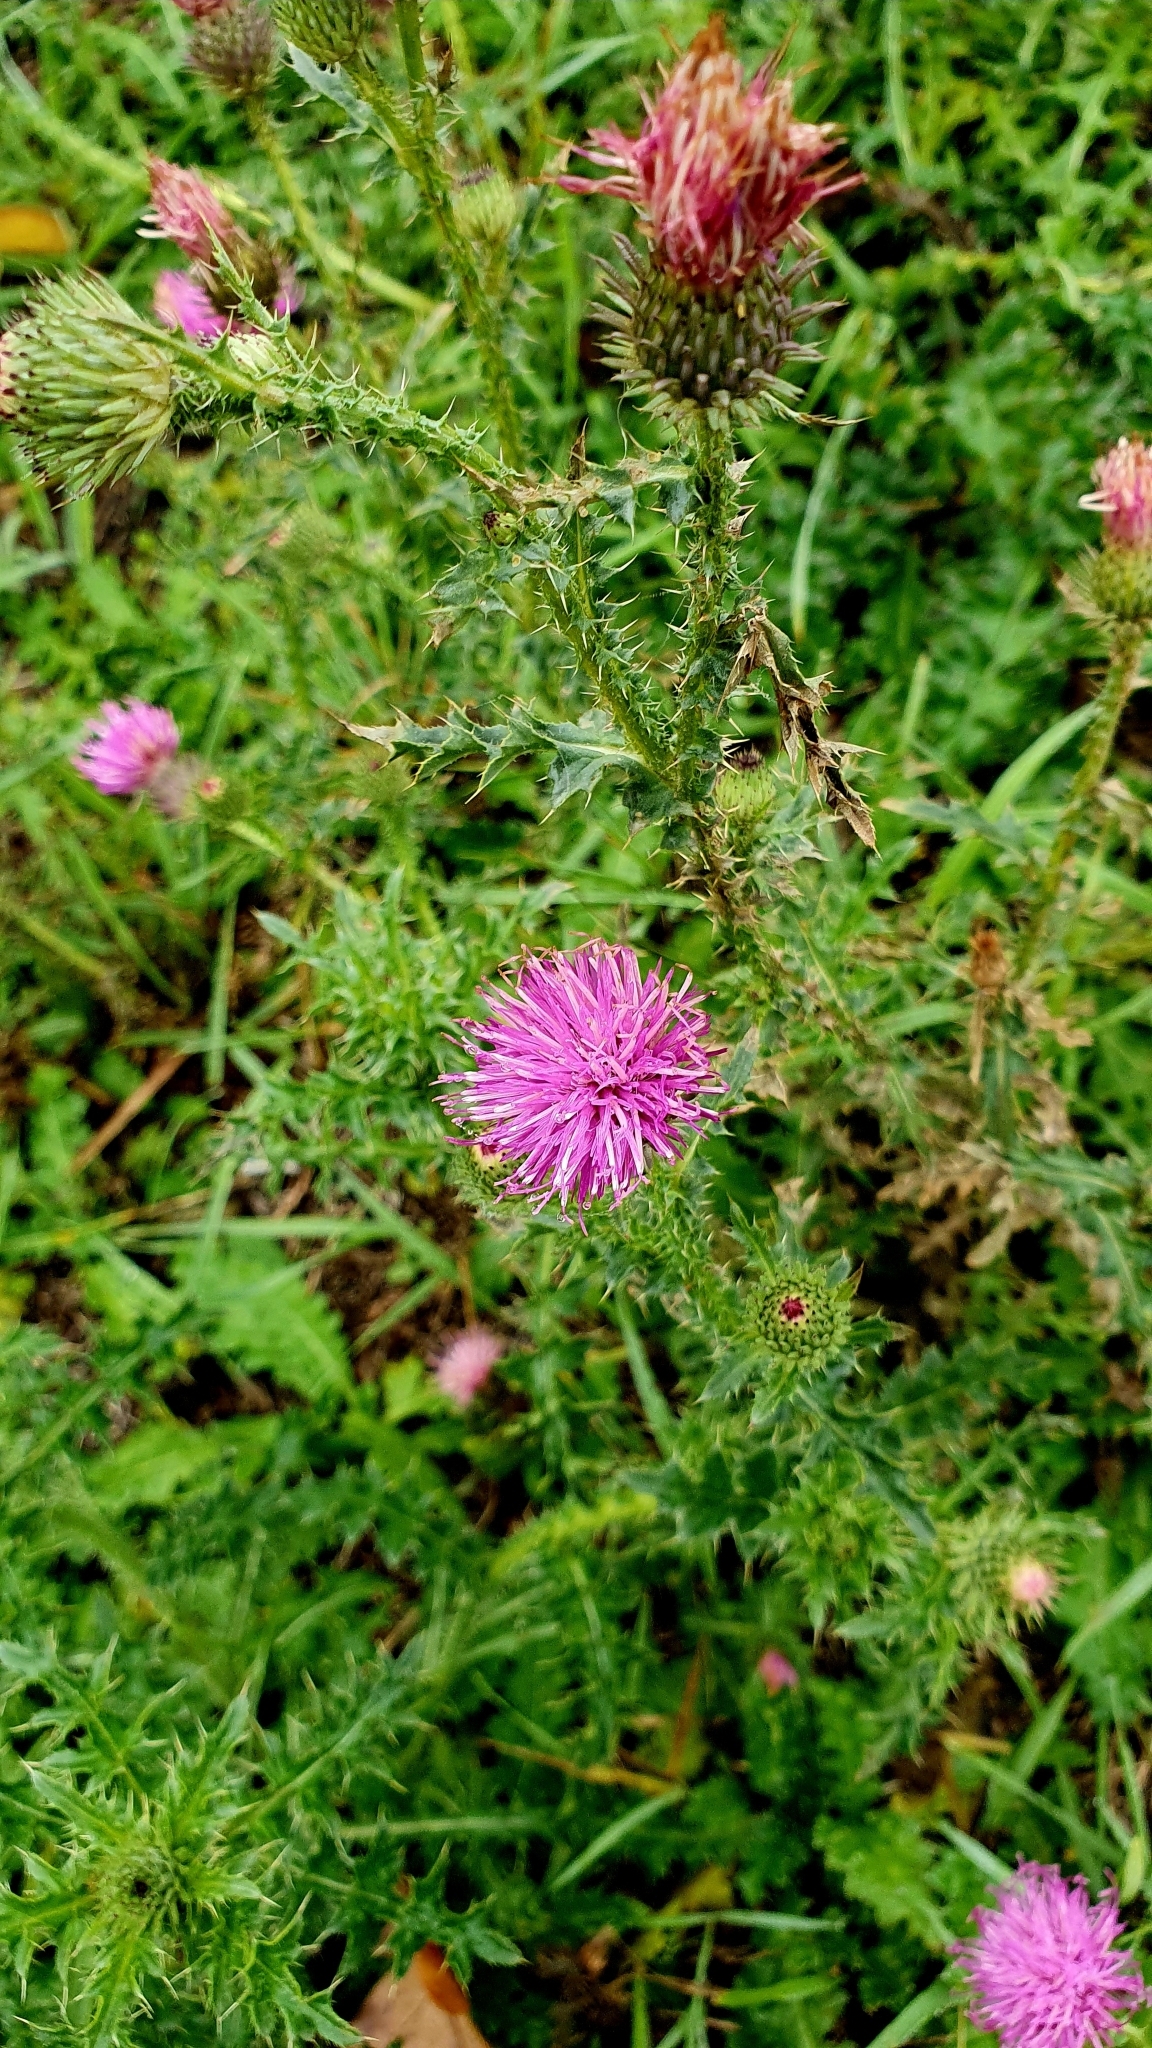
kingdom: Plantae
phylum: Tracheophyta
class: Magnoliopsida
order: Asterales
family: Asteraceae
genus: Carduus
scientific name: Carduus acanthoides
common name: Plumeless thistle
